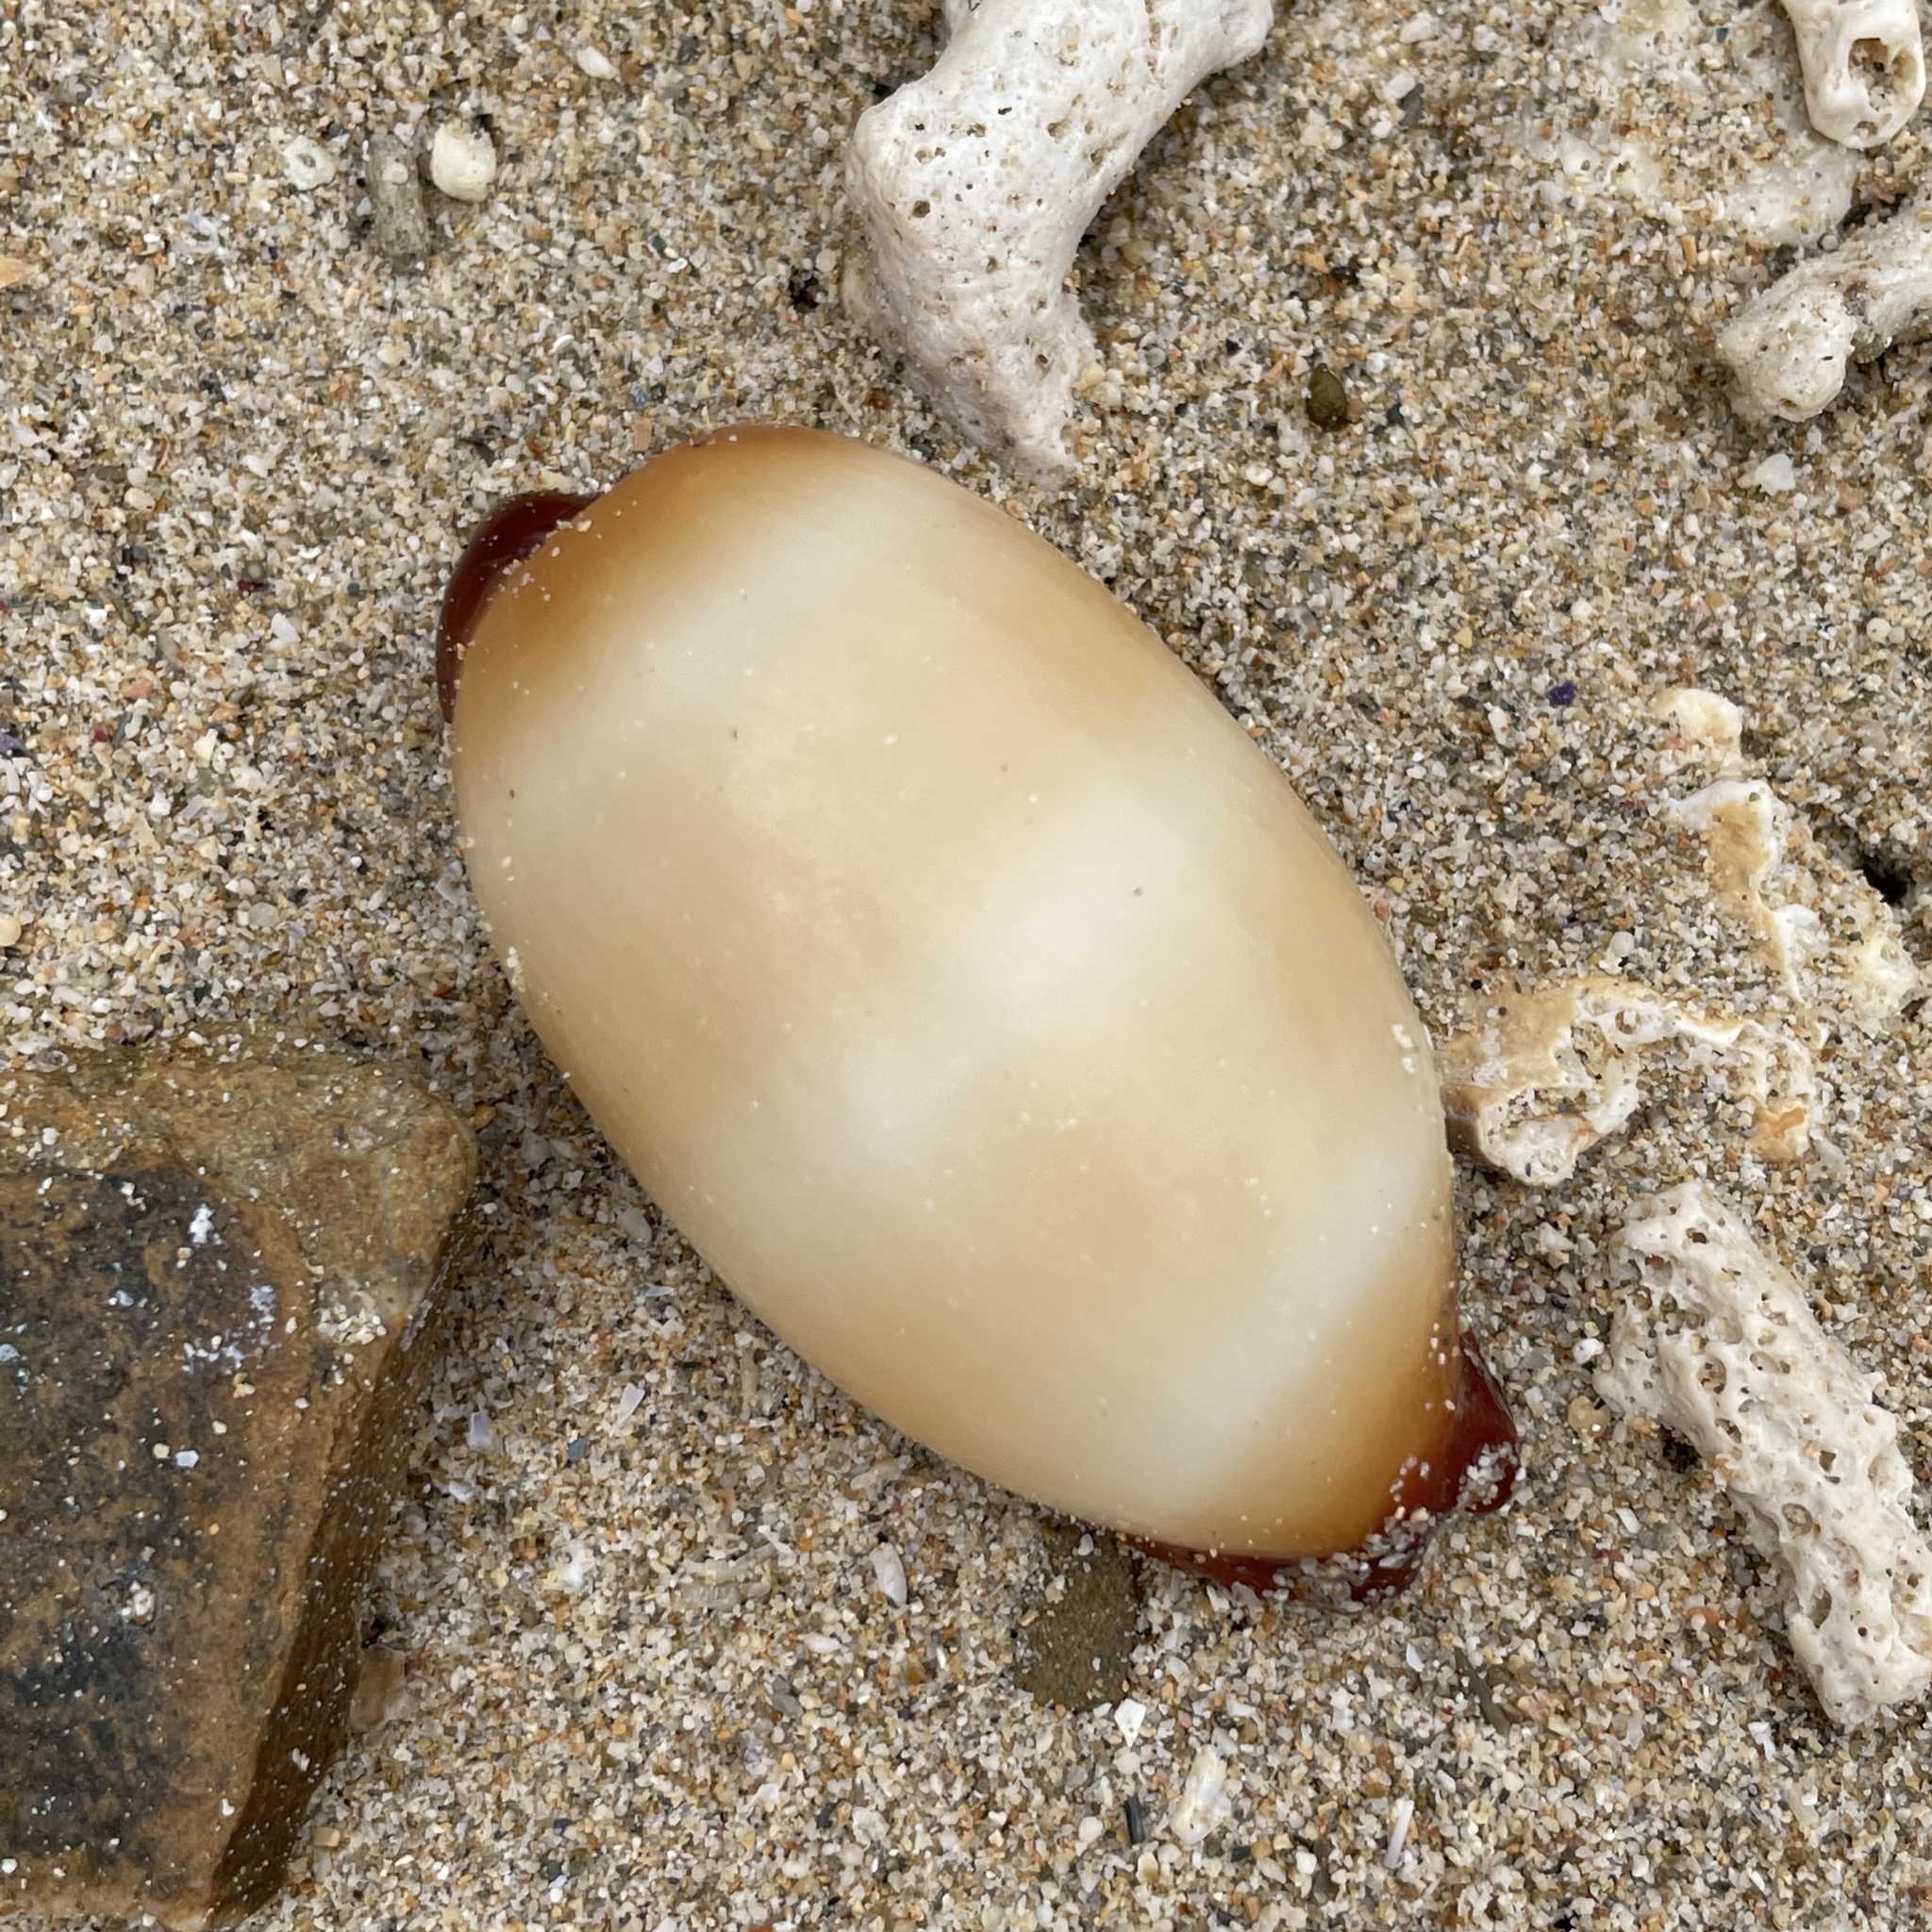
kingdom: Animalia
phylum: Mollusca
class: Gastropoda
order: Littorinimorpha
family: Cypraeidae
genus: Talparia
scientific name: Talparia talpa
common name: Mole cowrie
